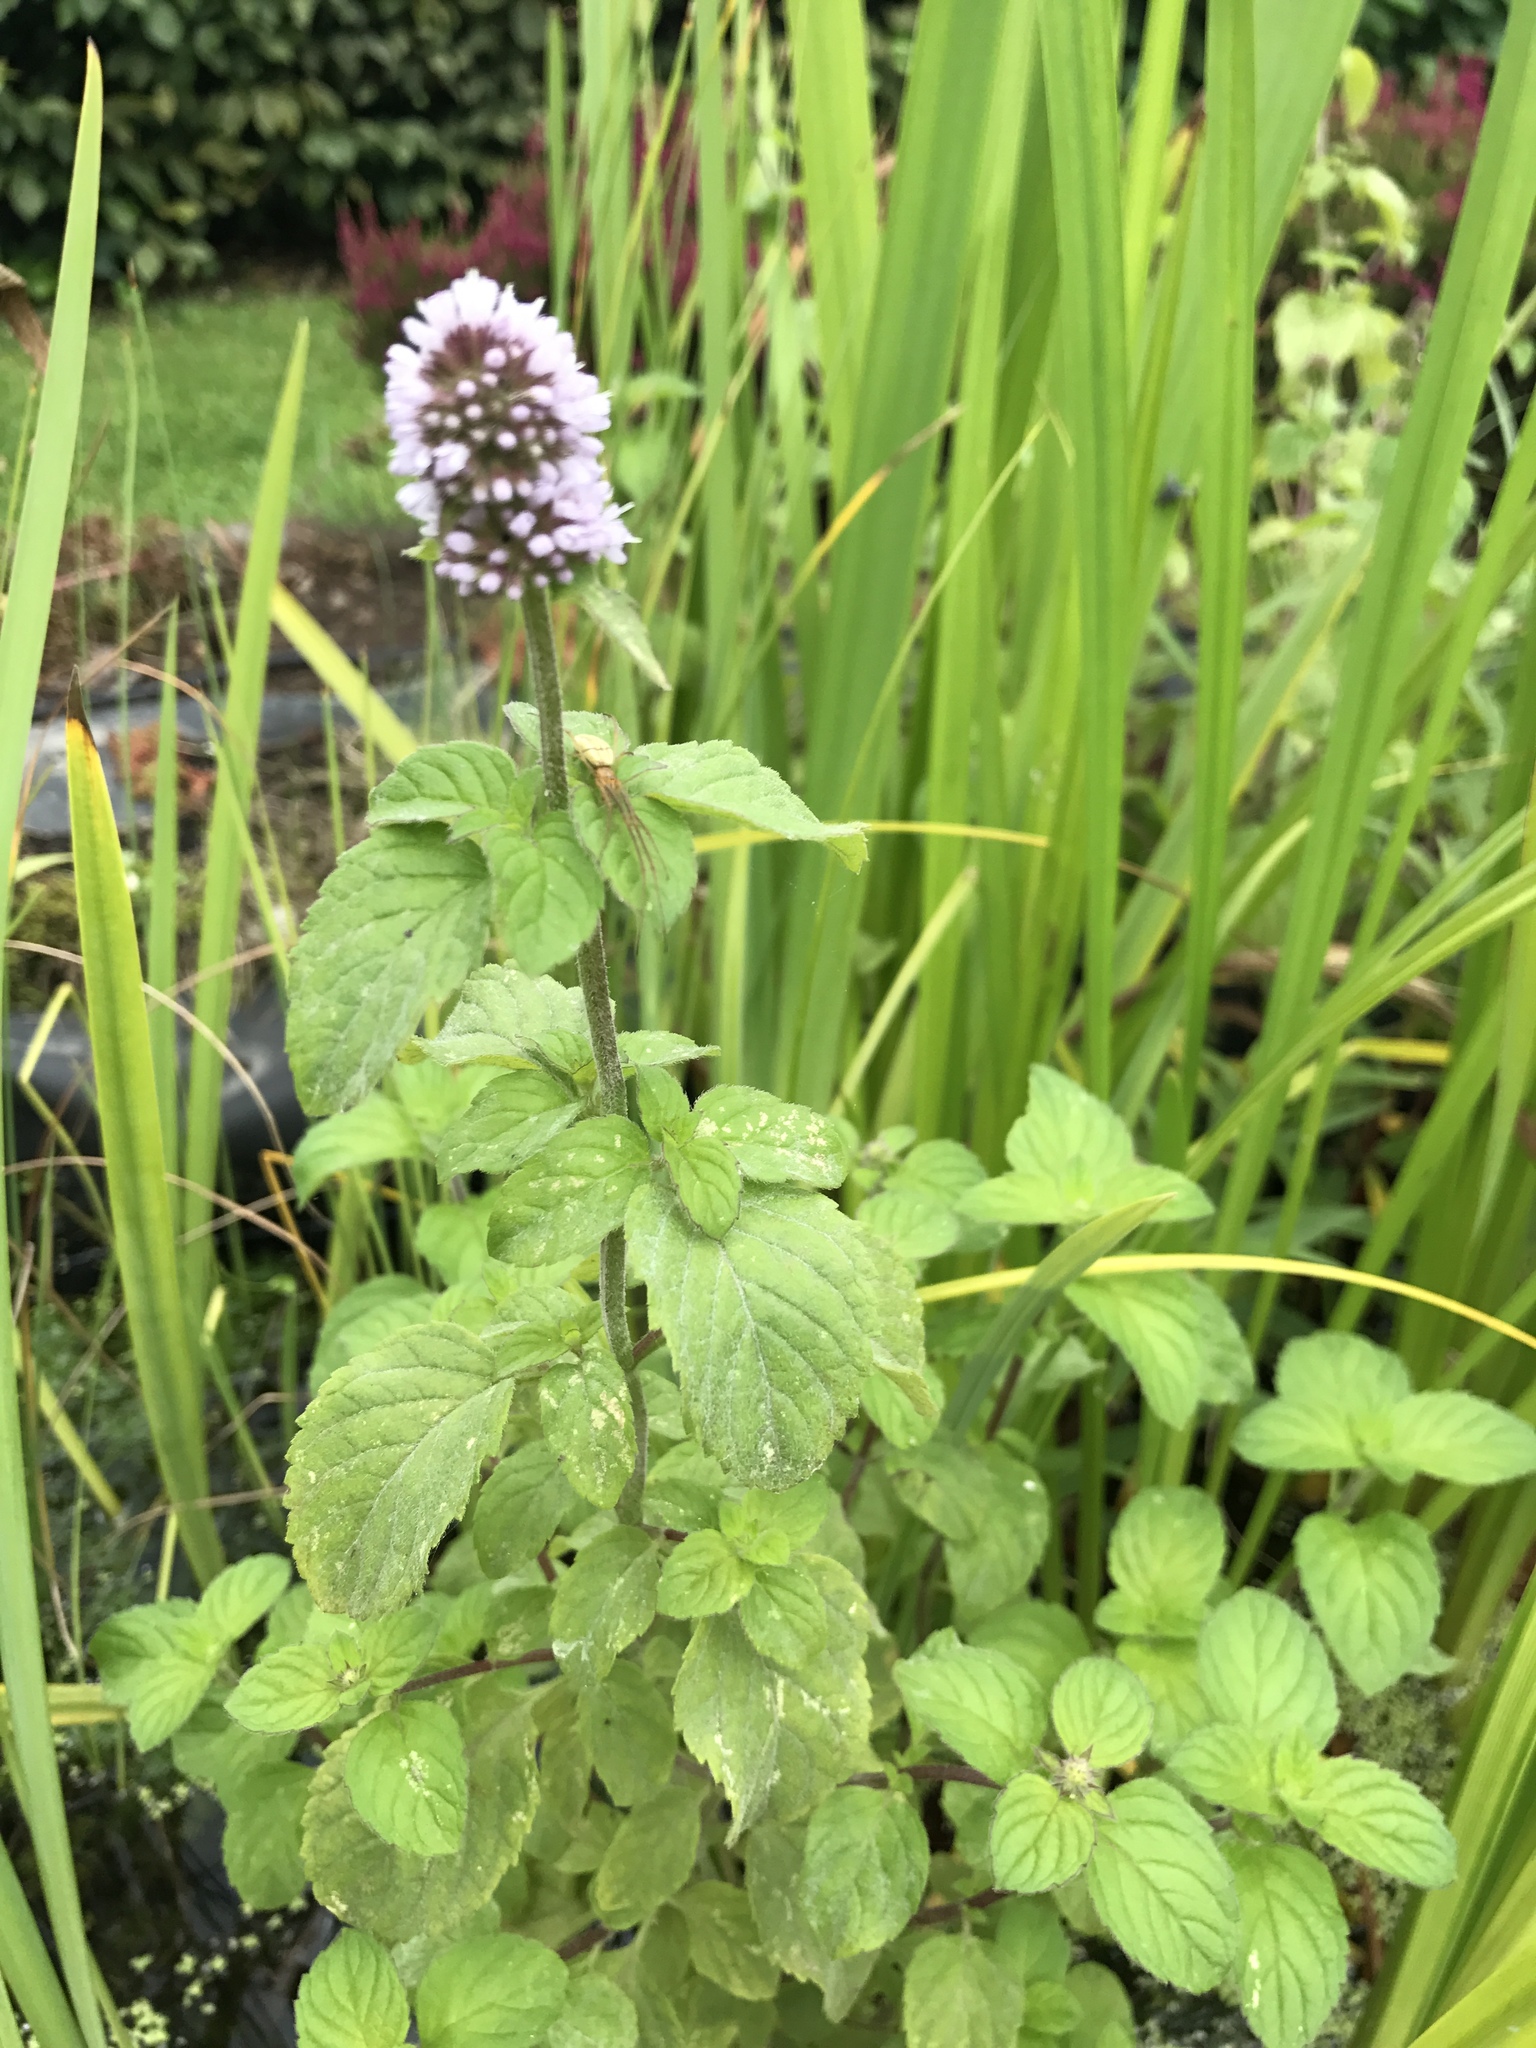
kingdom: Plantae
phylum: Tracheophyta
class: Magnoliopsida
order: Lamiales
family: Lamiaceae
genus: Mentha
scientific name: Mentha aquatica
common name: Water mint
